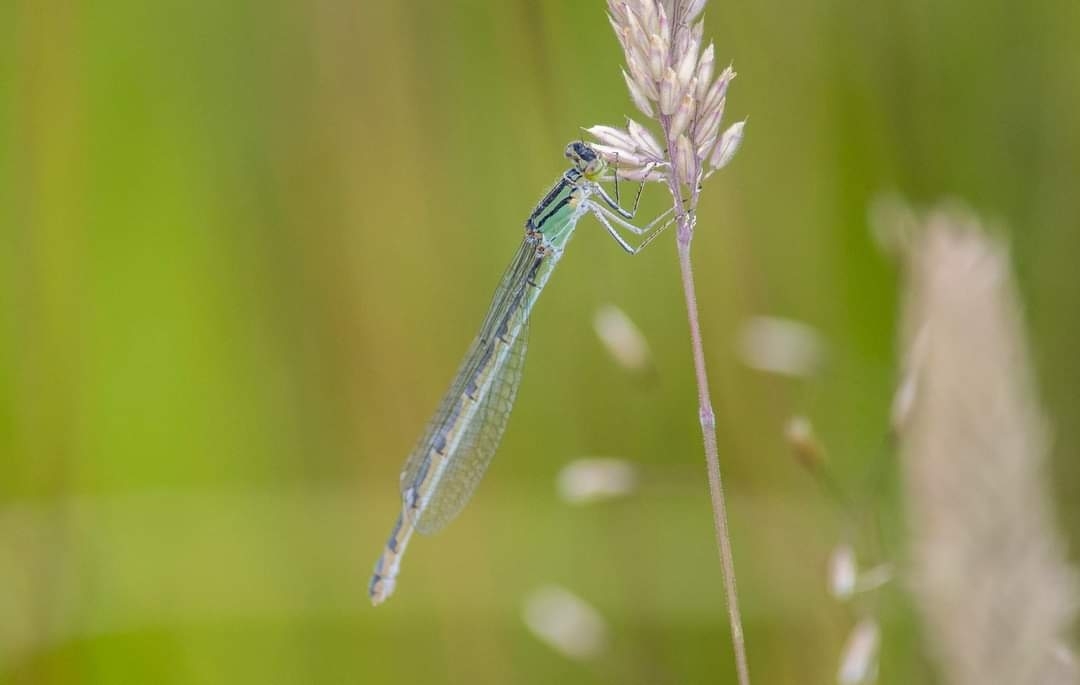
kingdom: Animalia
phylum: Arthropoda
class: Insecta
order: Odonata
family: Coenagrionidae
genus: Enallagma
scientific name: Enallagma cyathigerum
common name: Common blue damselfly
